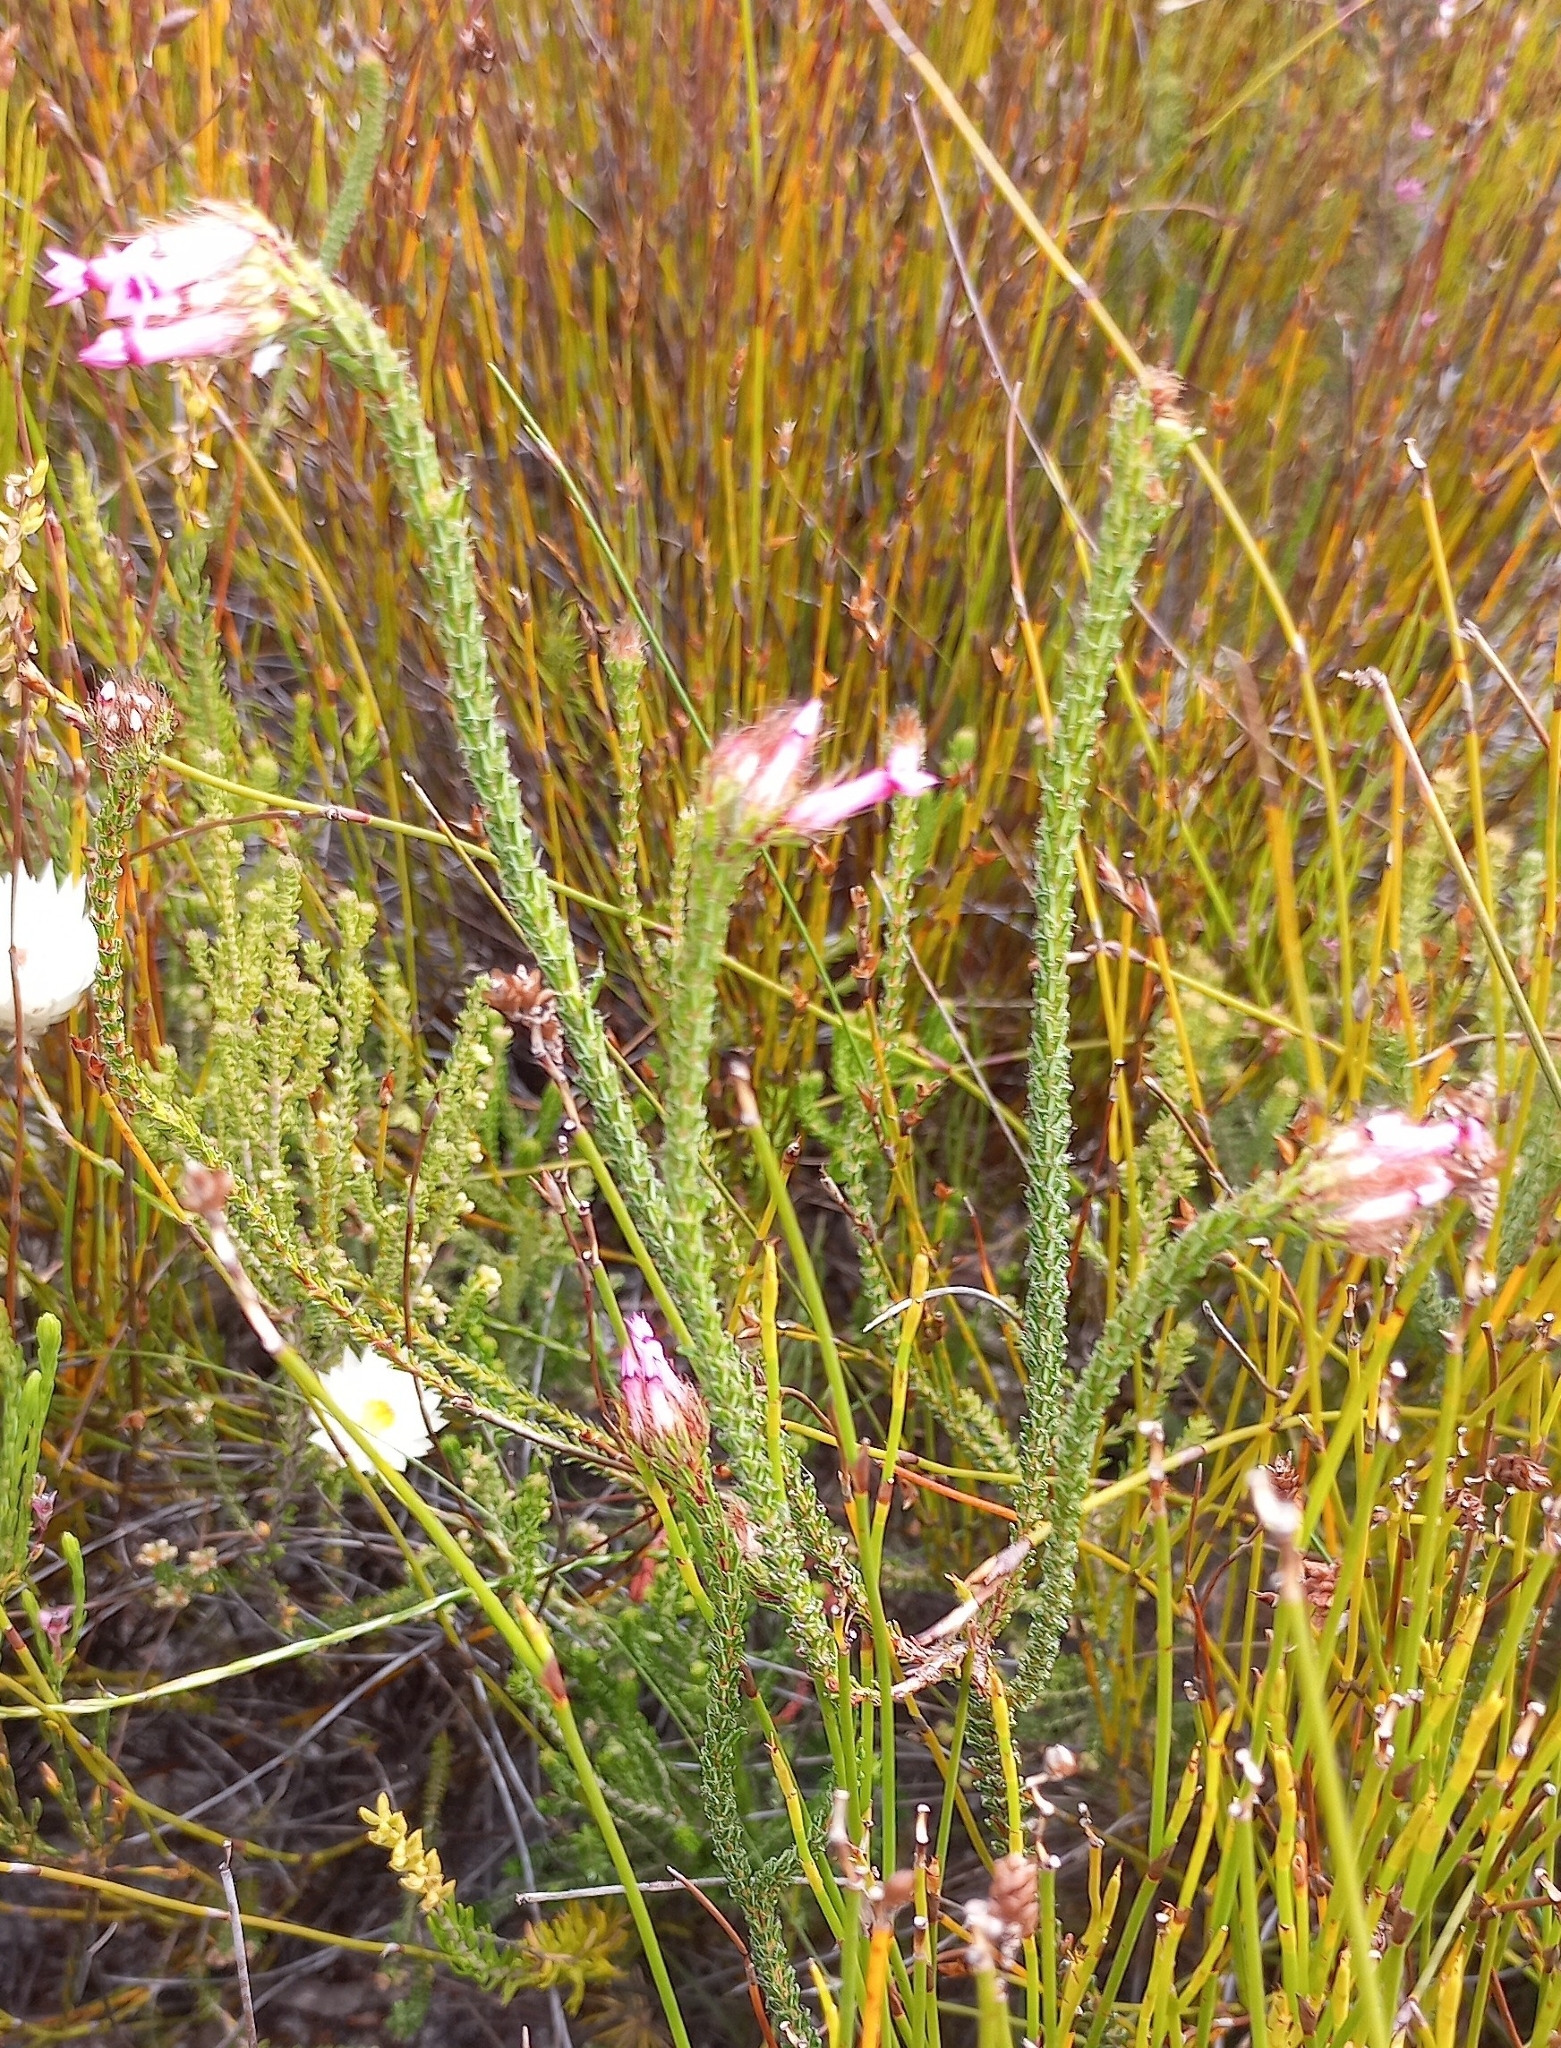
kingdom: Plantae
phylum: Tracheophyta
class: Magnoliopsida
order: Ericales
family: Ericaceae
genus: Erica
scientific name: Erica gysbertii
